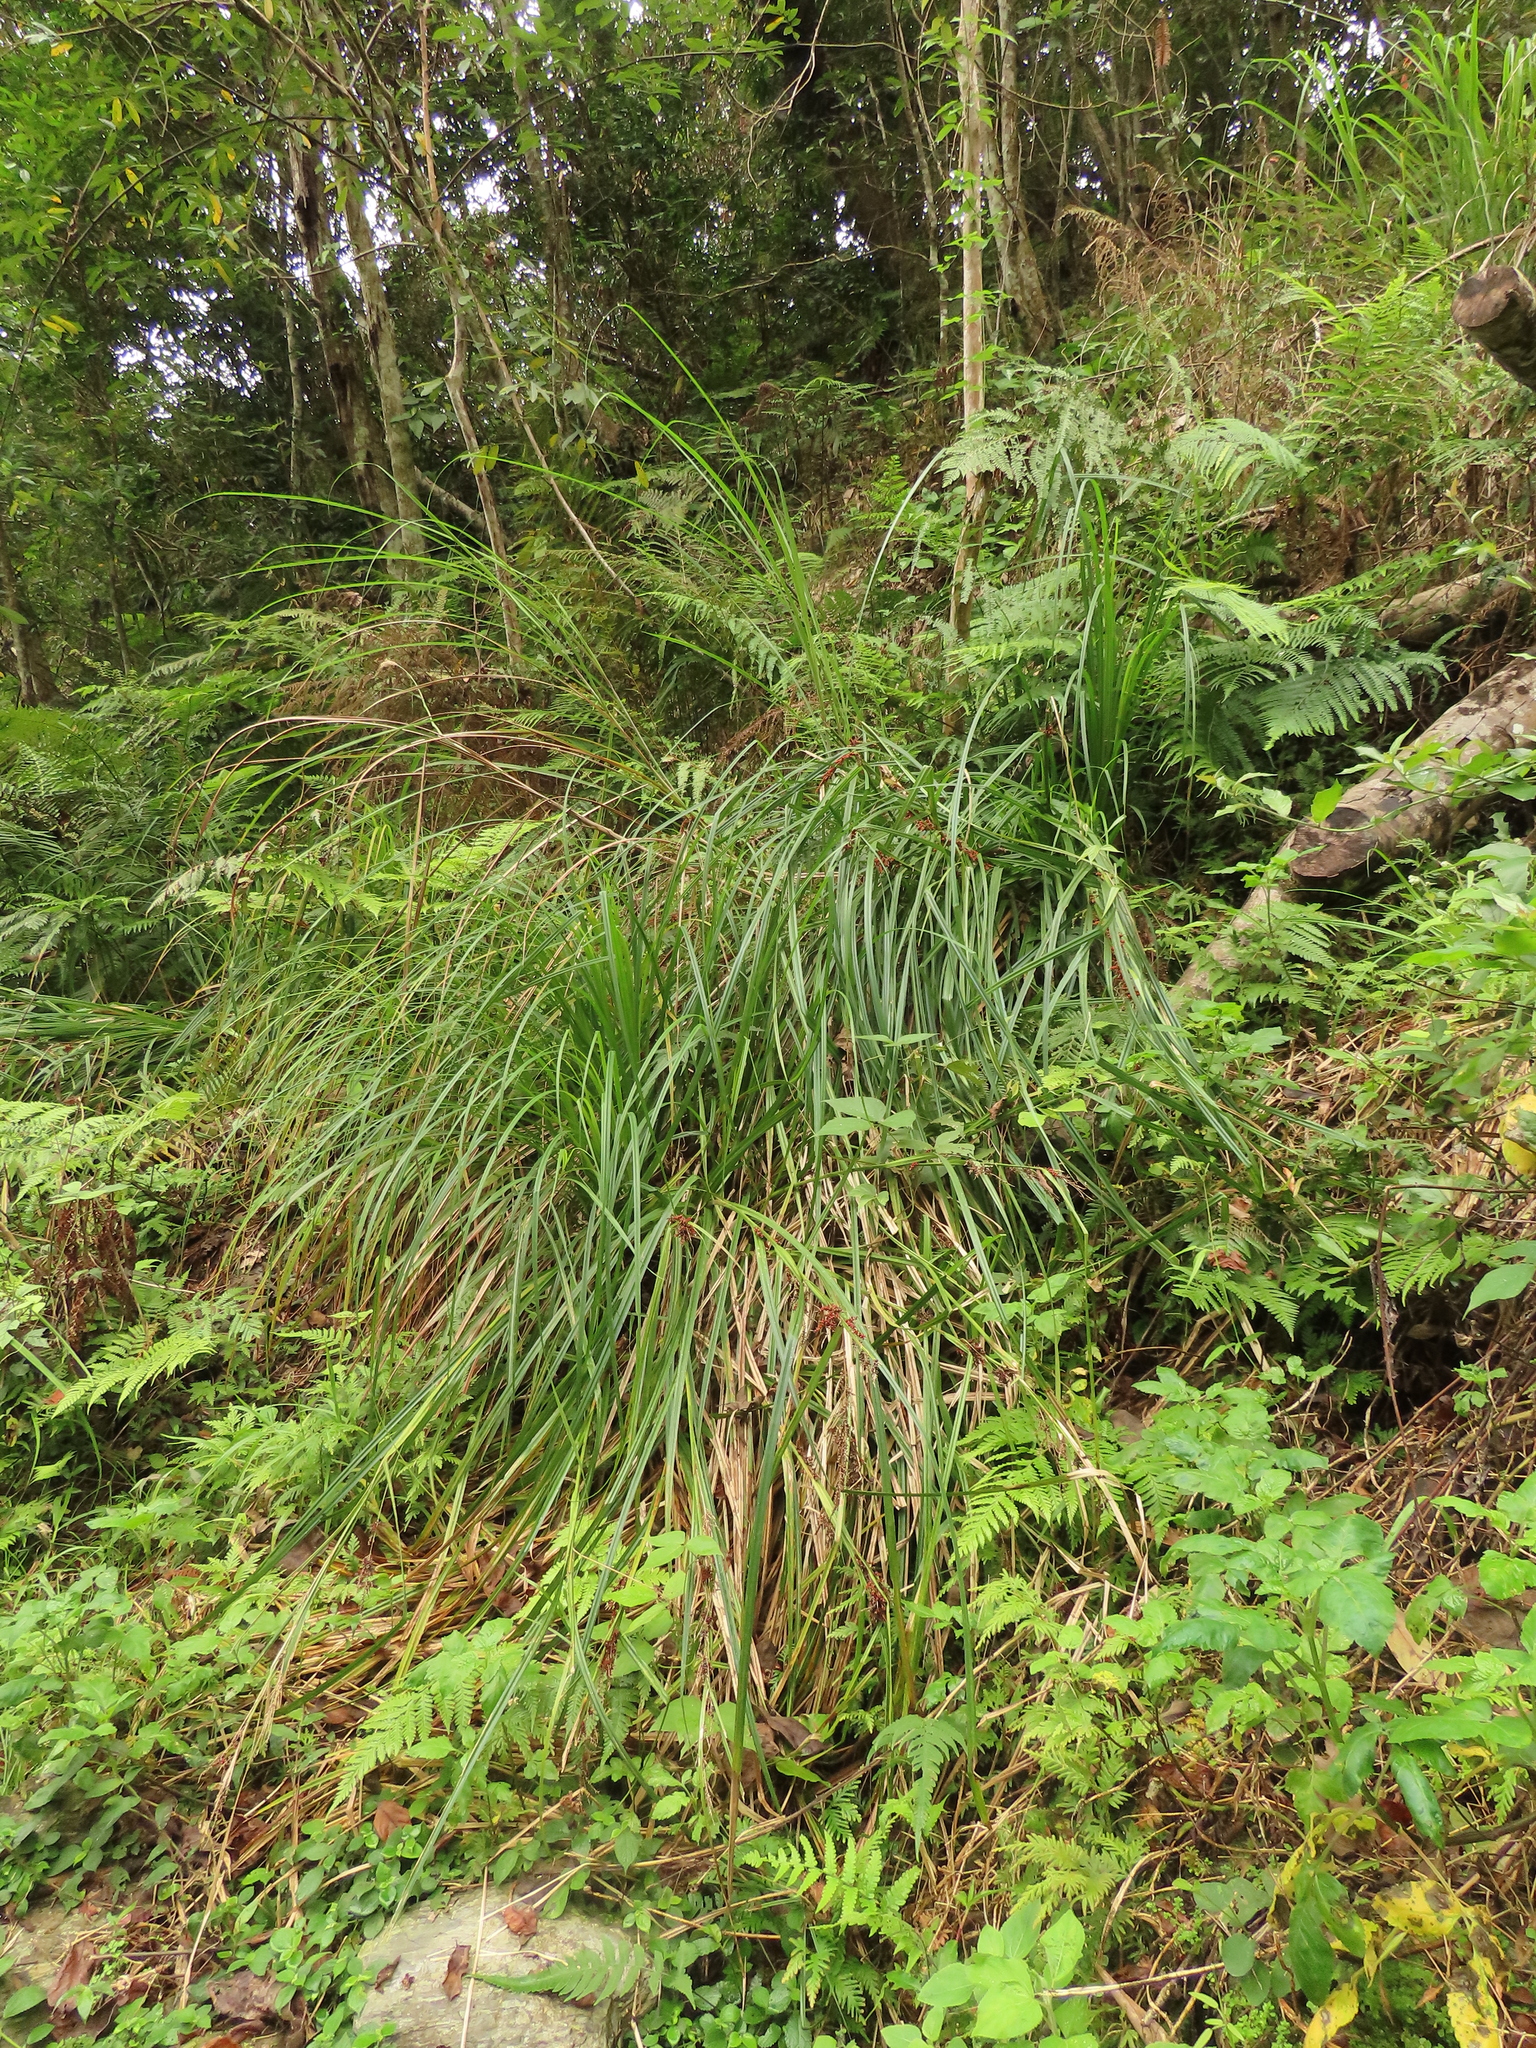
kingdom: Plantae
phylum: Tracheophyta
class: Liliopsida
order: Poales
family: Cyperaceae
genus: Carex
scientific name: Carex baccans
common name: Crimson seeded sedge
